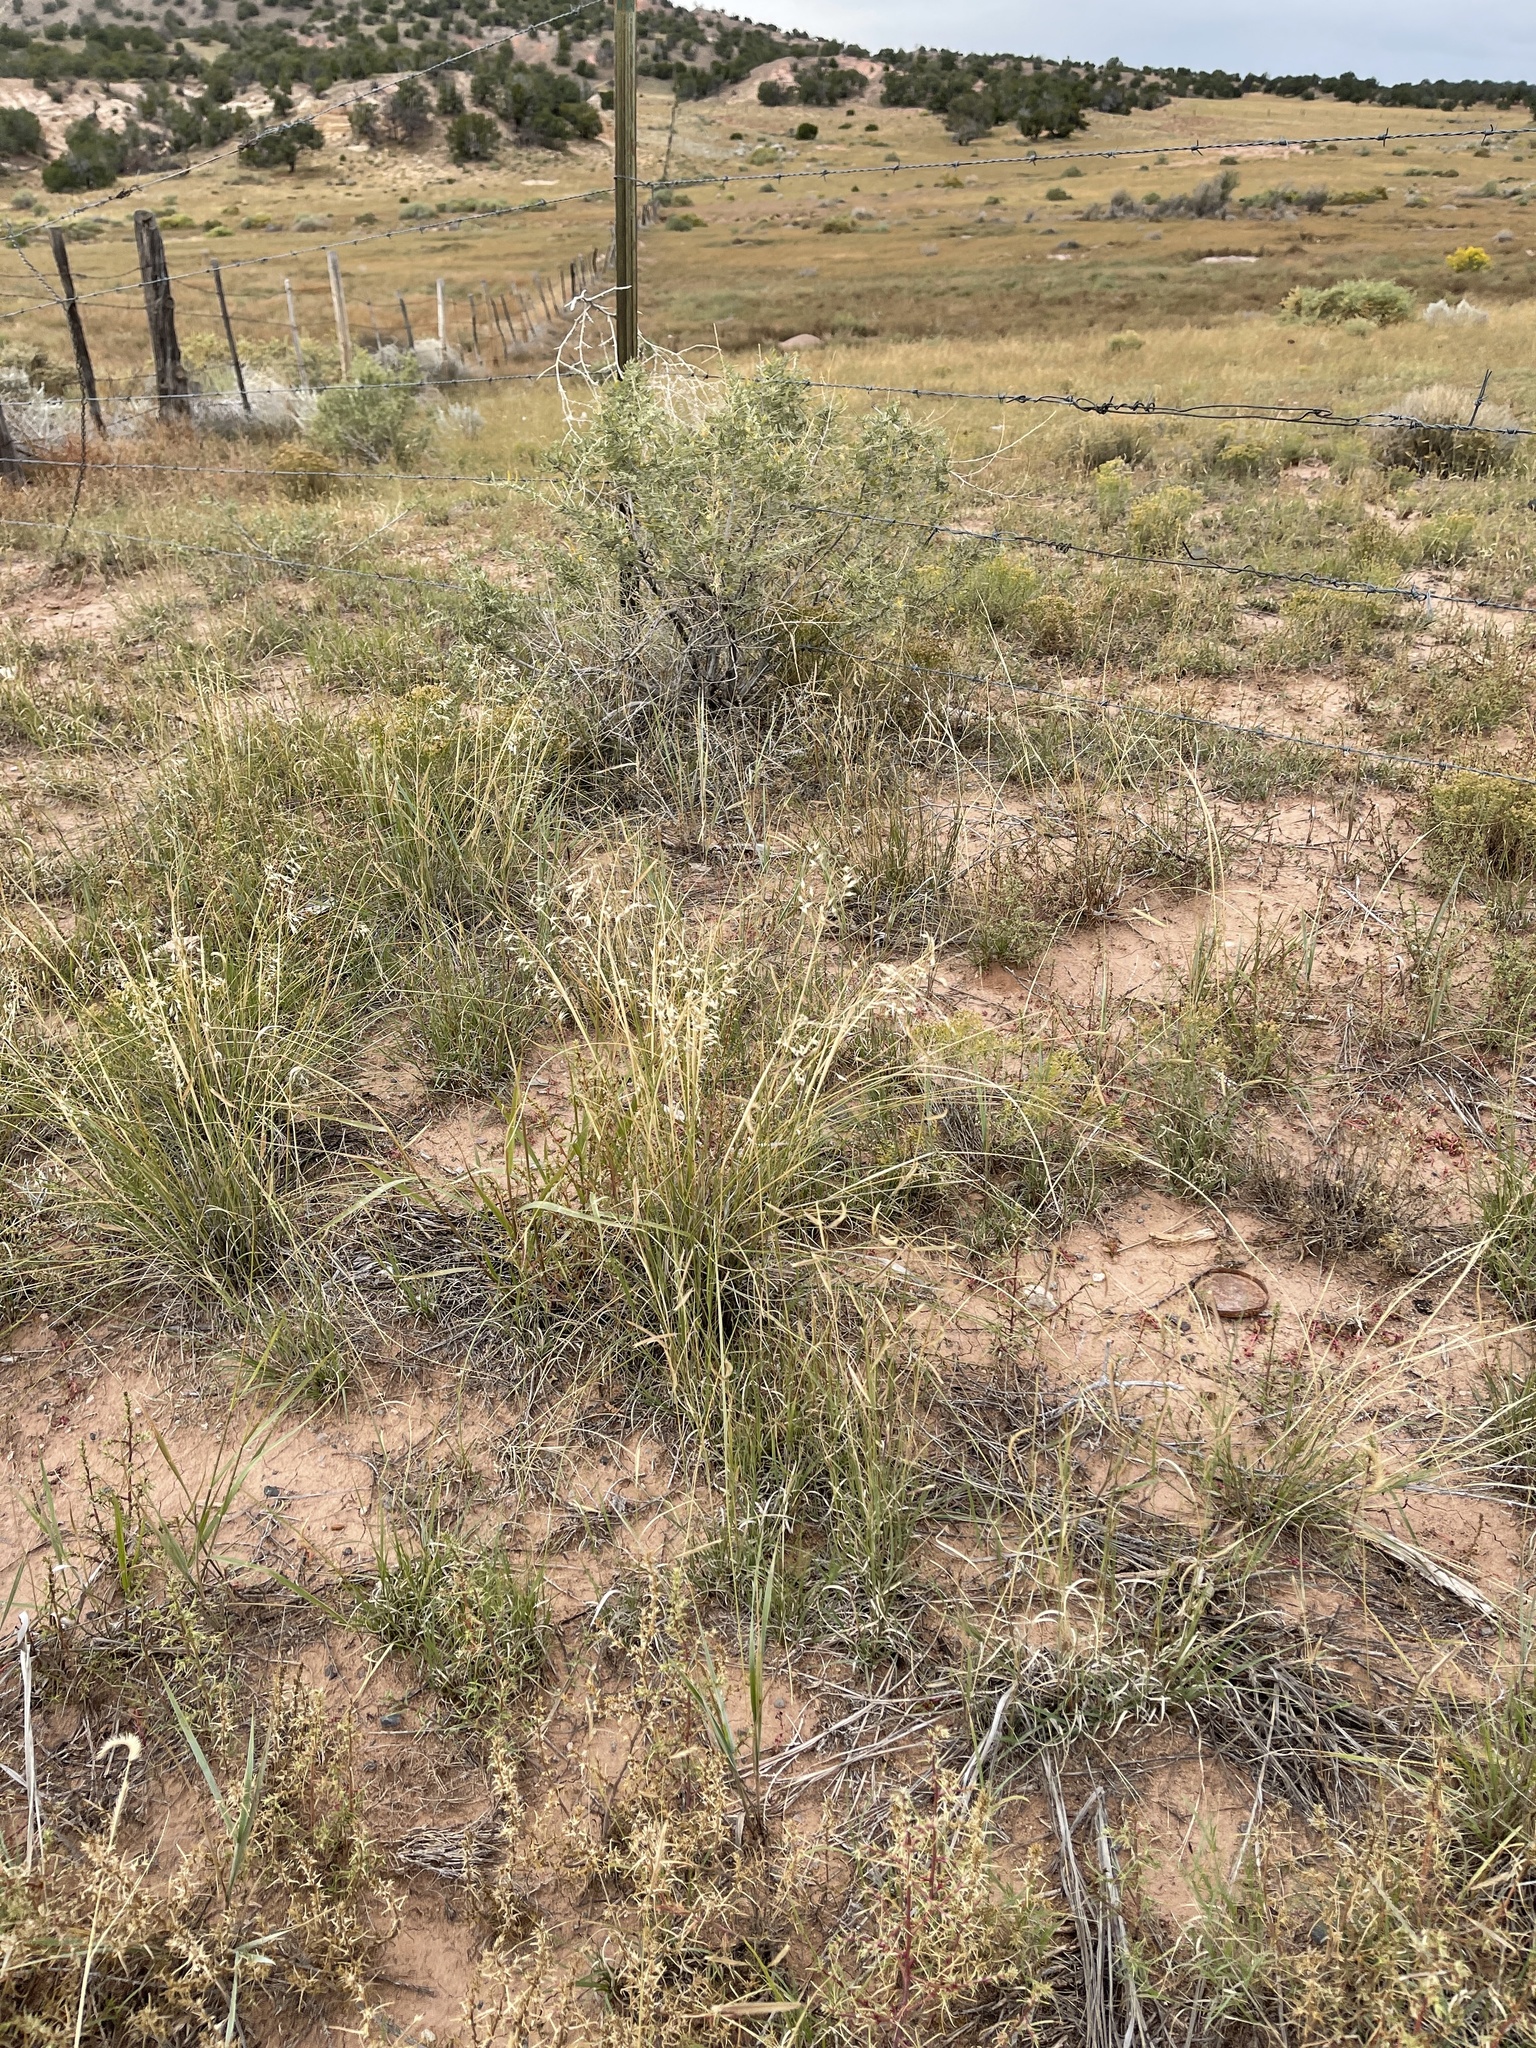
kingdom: Plantae
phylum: Tracheophyta
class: Liliopsida
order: Poales
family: Poaceae
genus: Eriocoma
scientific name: Eriocoma hymenoides
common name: Indian mountain ricegrass
